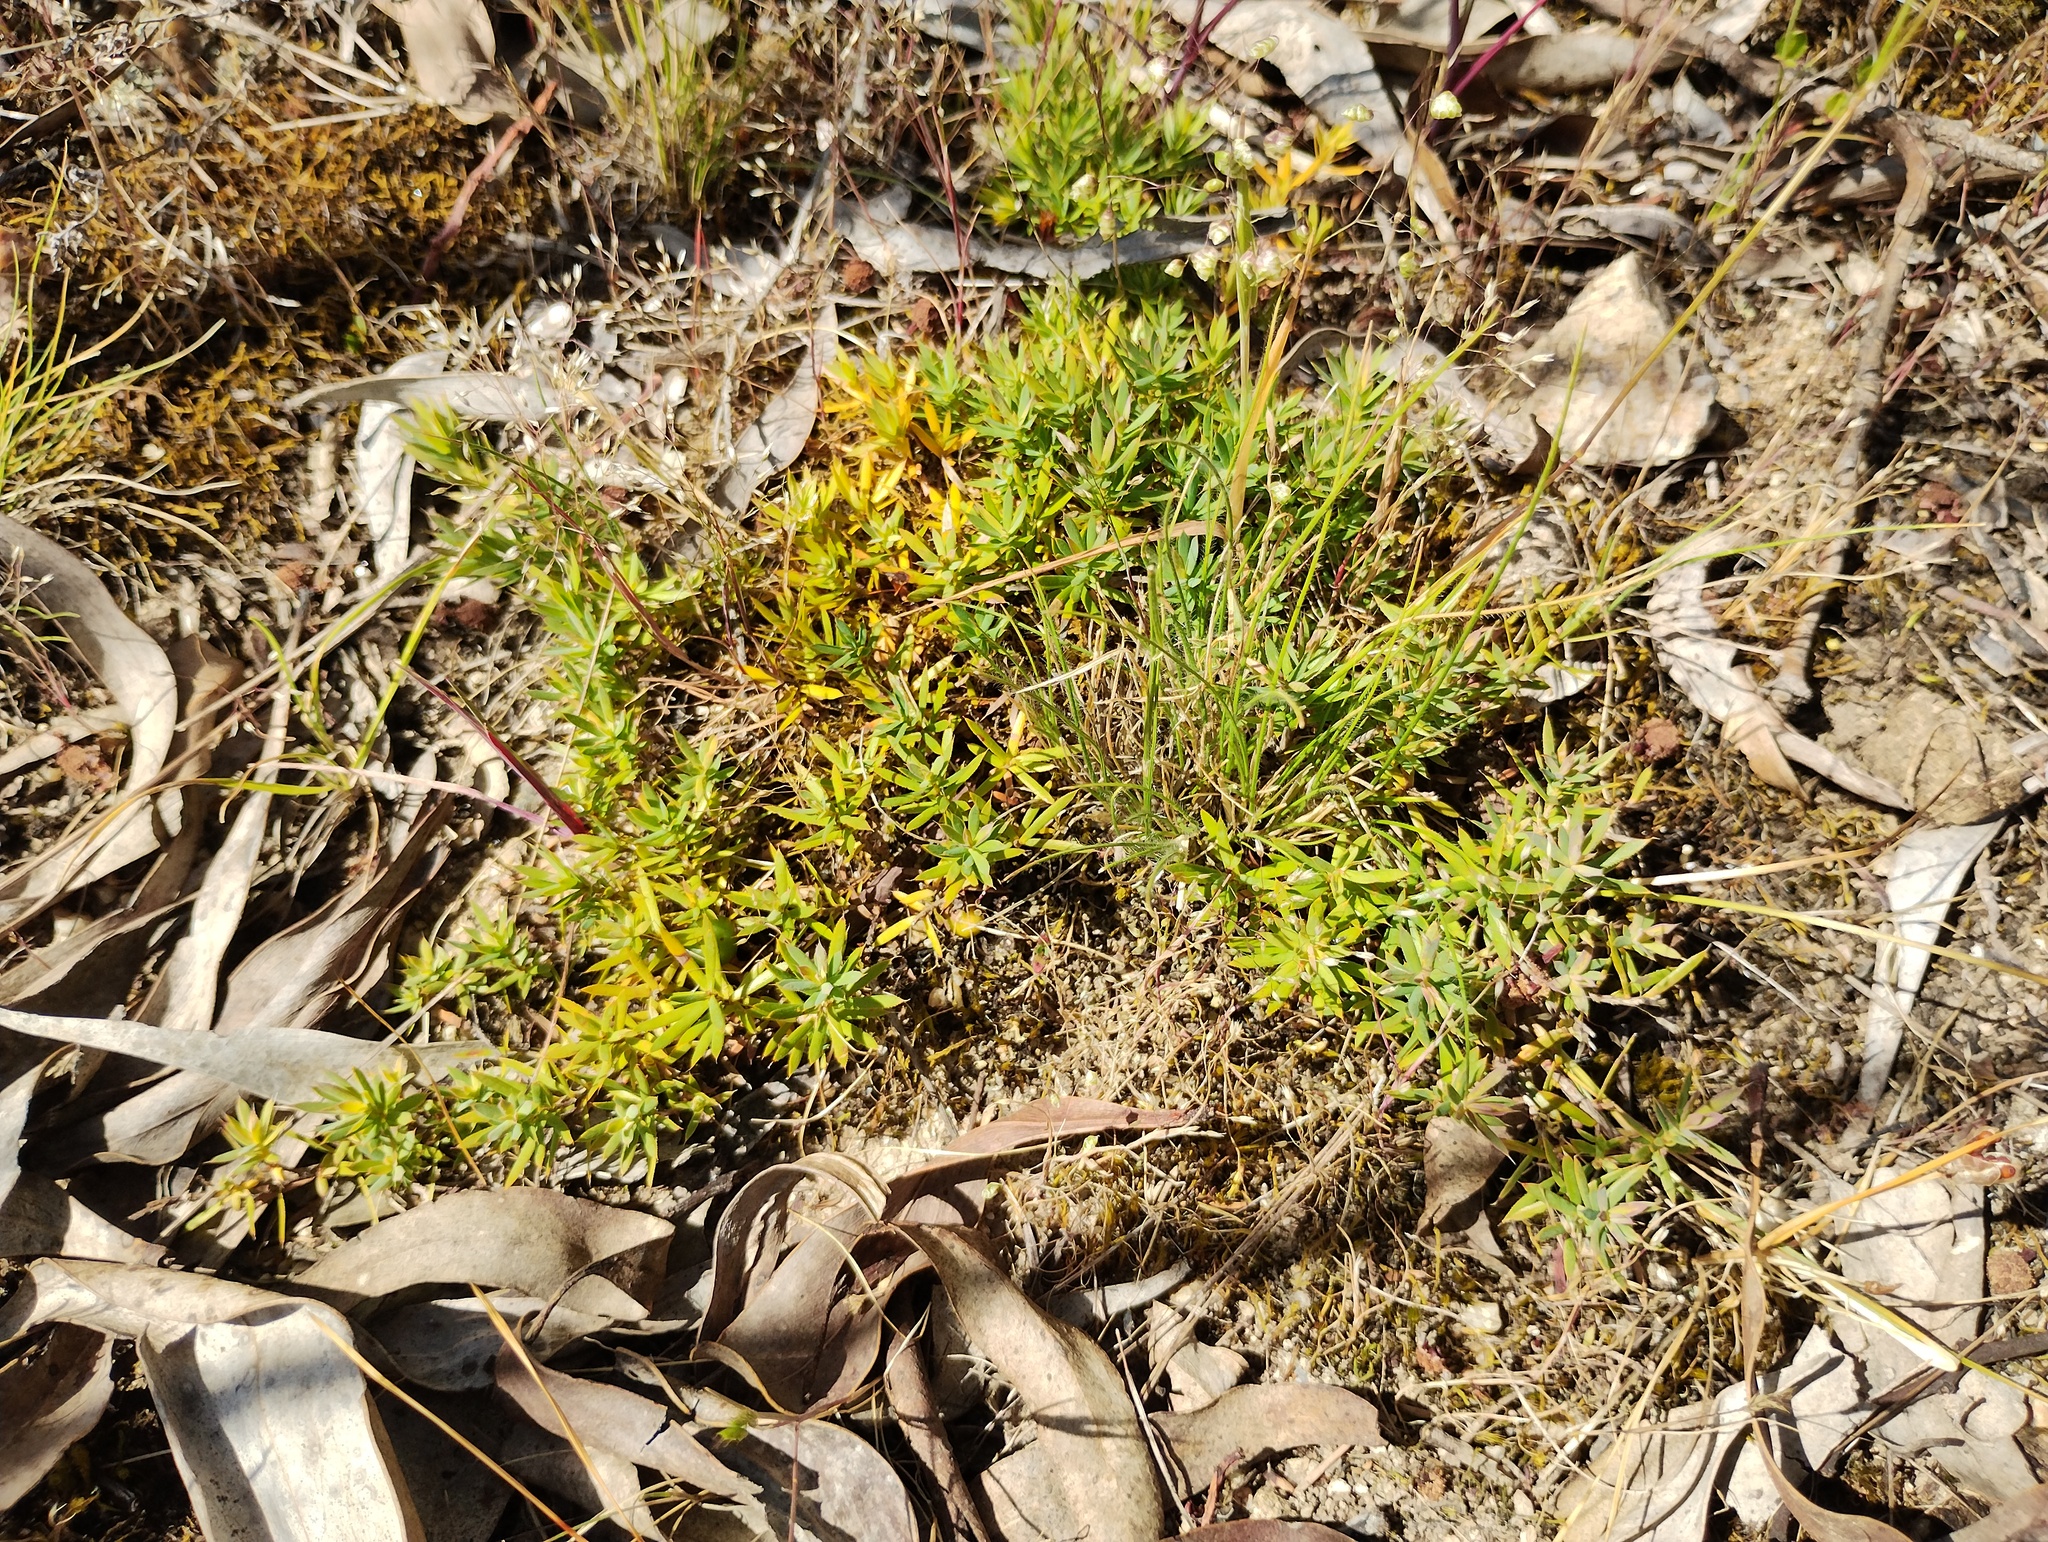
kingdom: Plantae
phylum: Tracheophyta
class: Magnoliopsida
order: Ericales
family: Ericaceae
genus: Styphelia
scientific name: Styphelia humifusa
